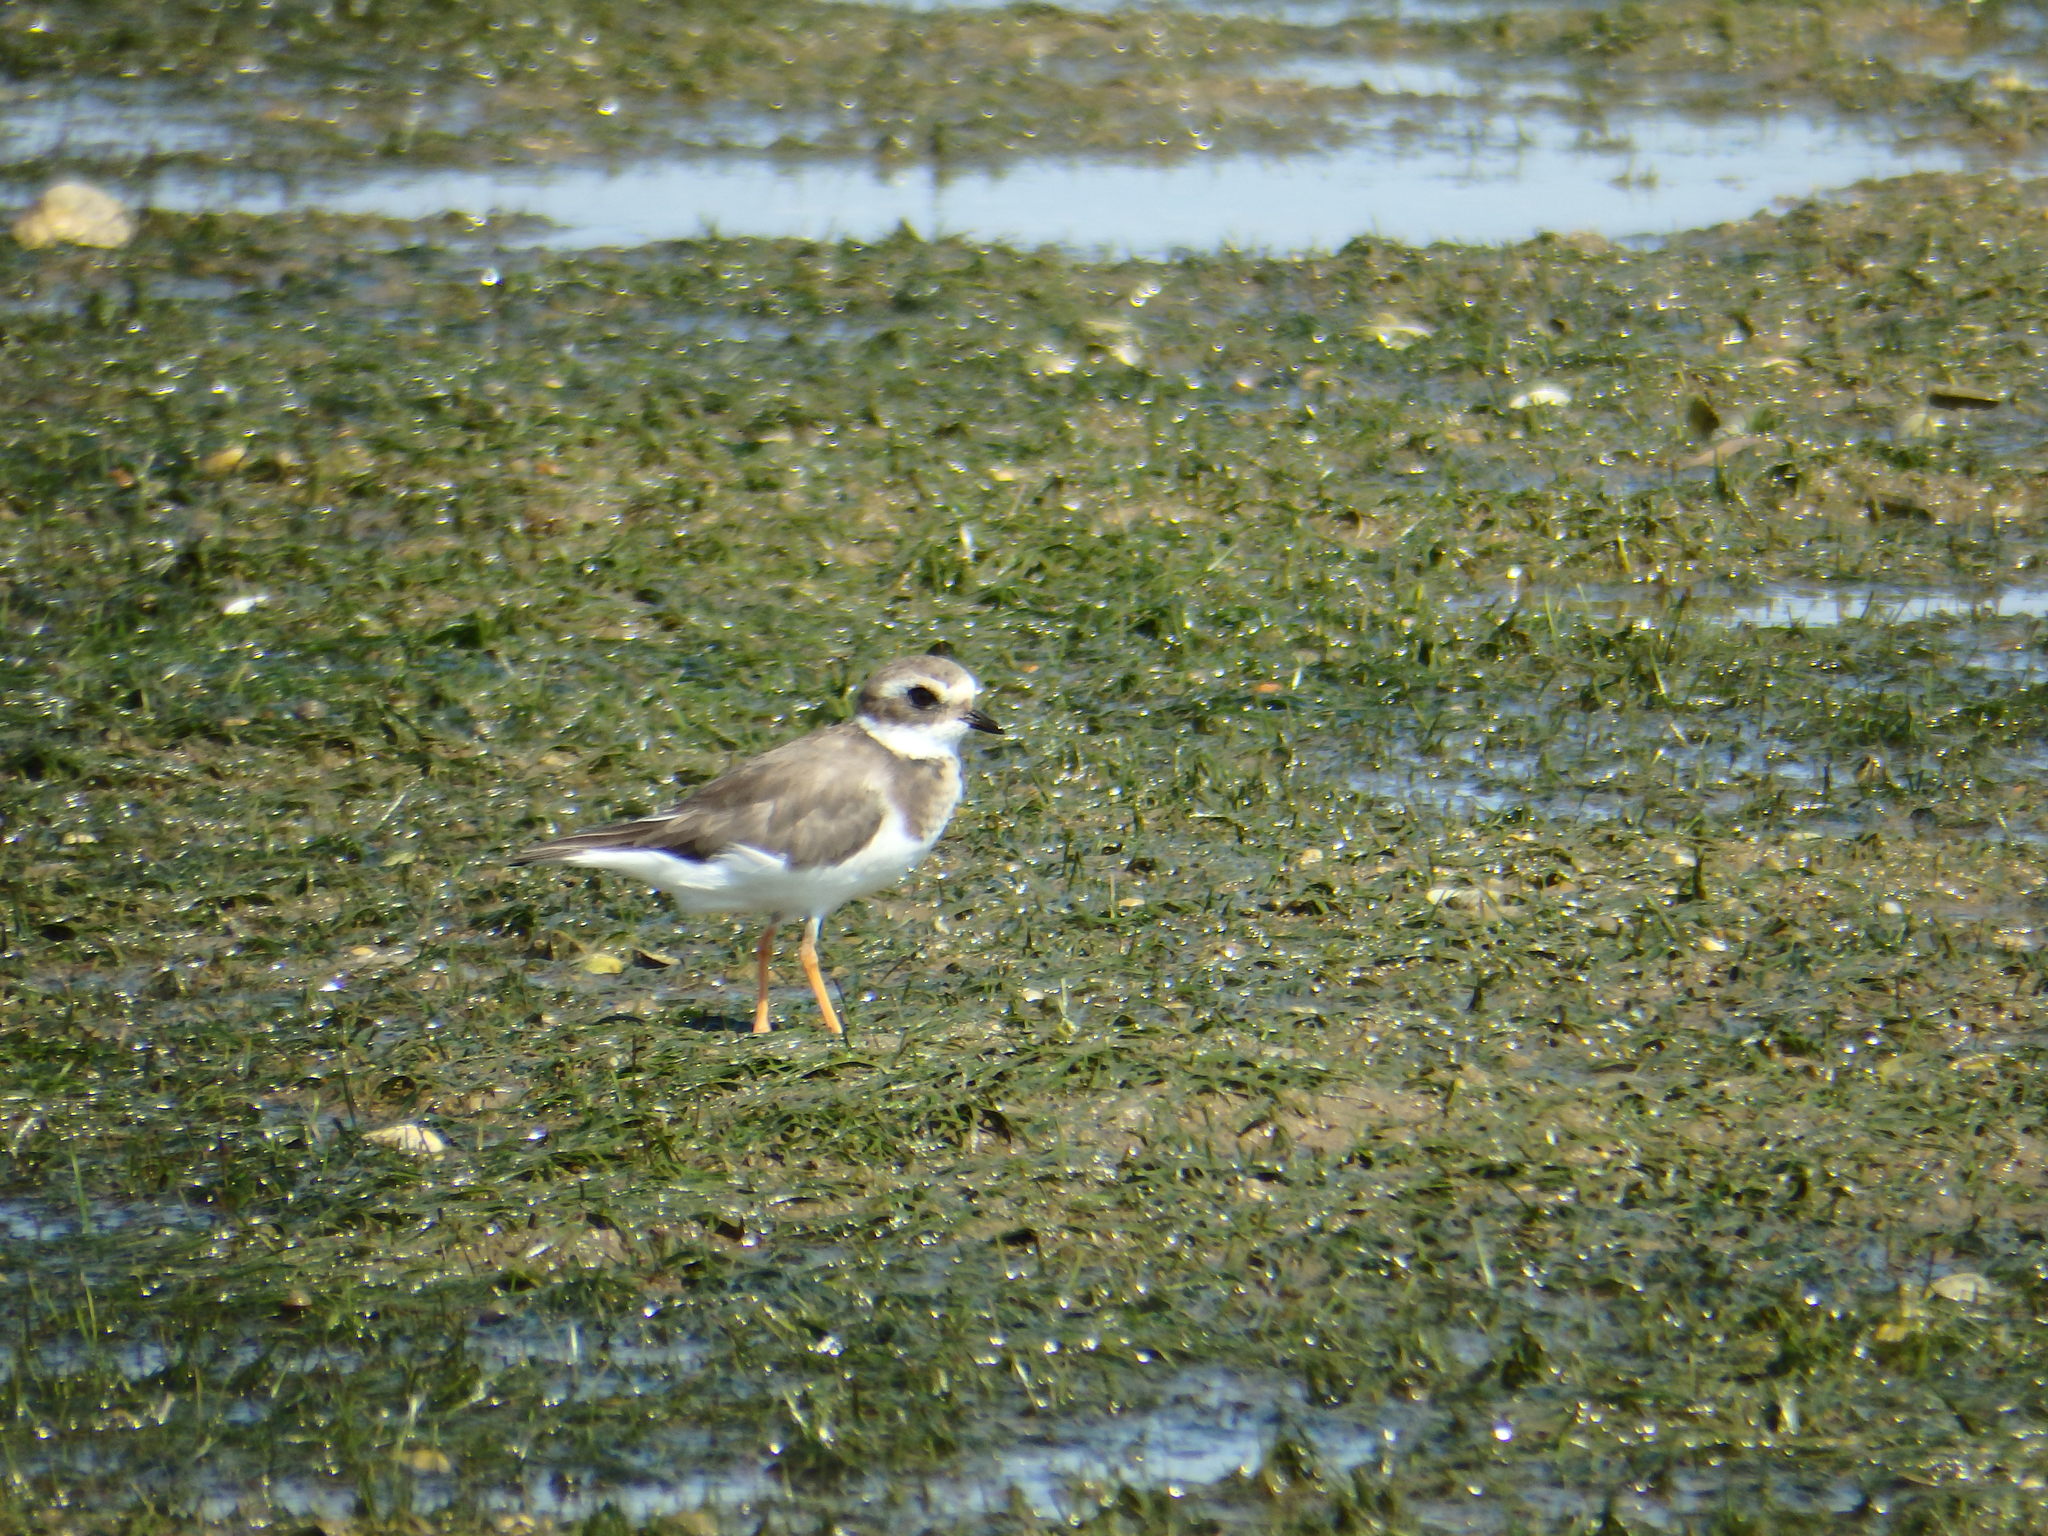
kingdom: Animalia
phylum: Chordata
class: Aves
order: Charadriiformes
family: Charadriidae
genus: Charadrius
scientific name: Charadrius hiaticula
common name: Common ringed plover
